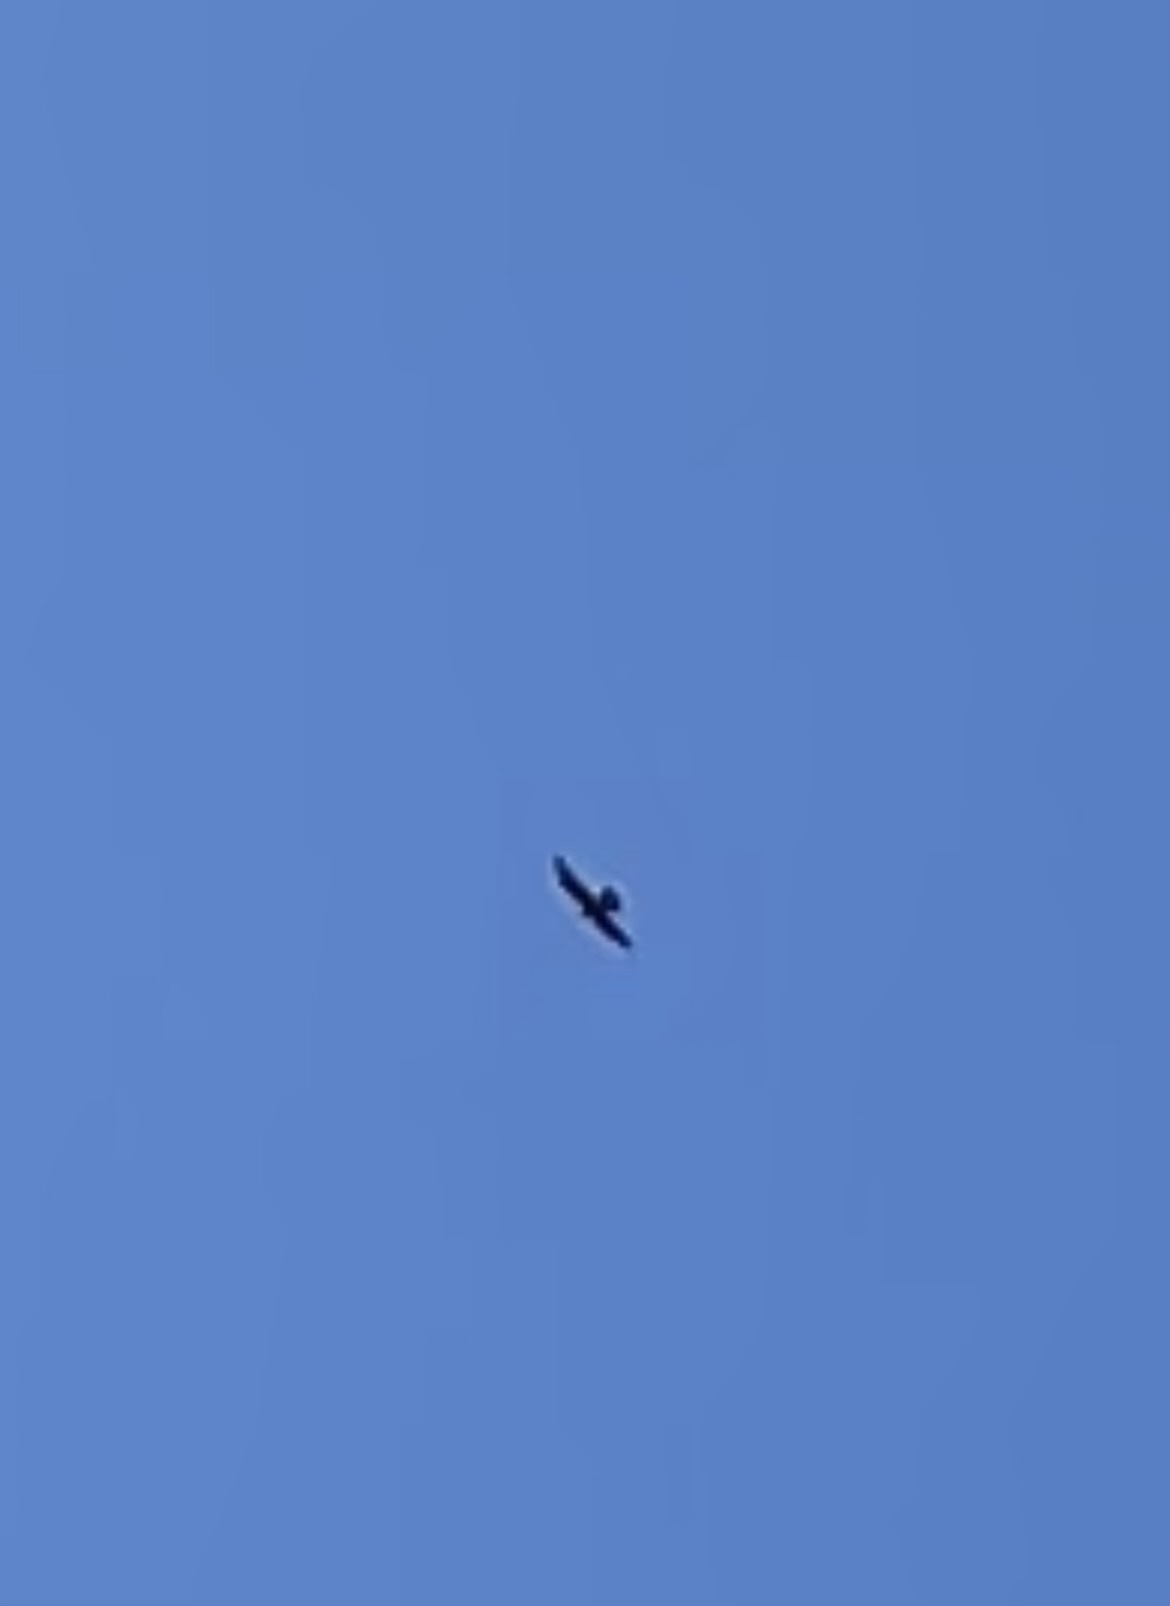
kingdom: Animalia
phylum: Chordata
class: Aves
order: Falconiformes
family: Falconidae
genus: Falco
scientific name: Falco peregrinus
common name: Peregrine falcon
